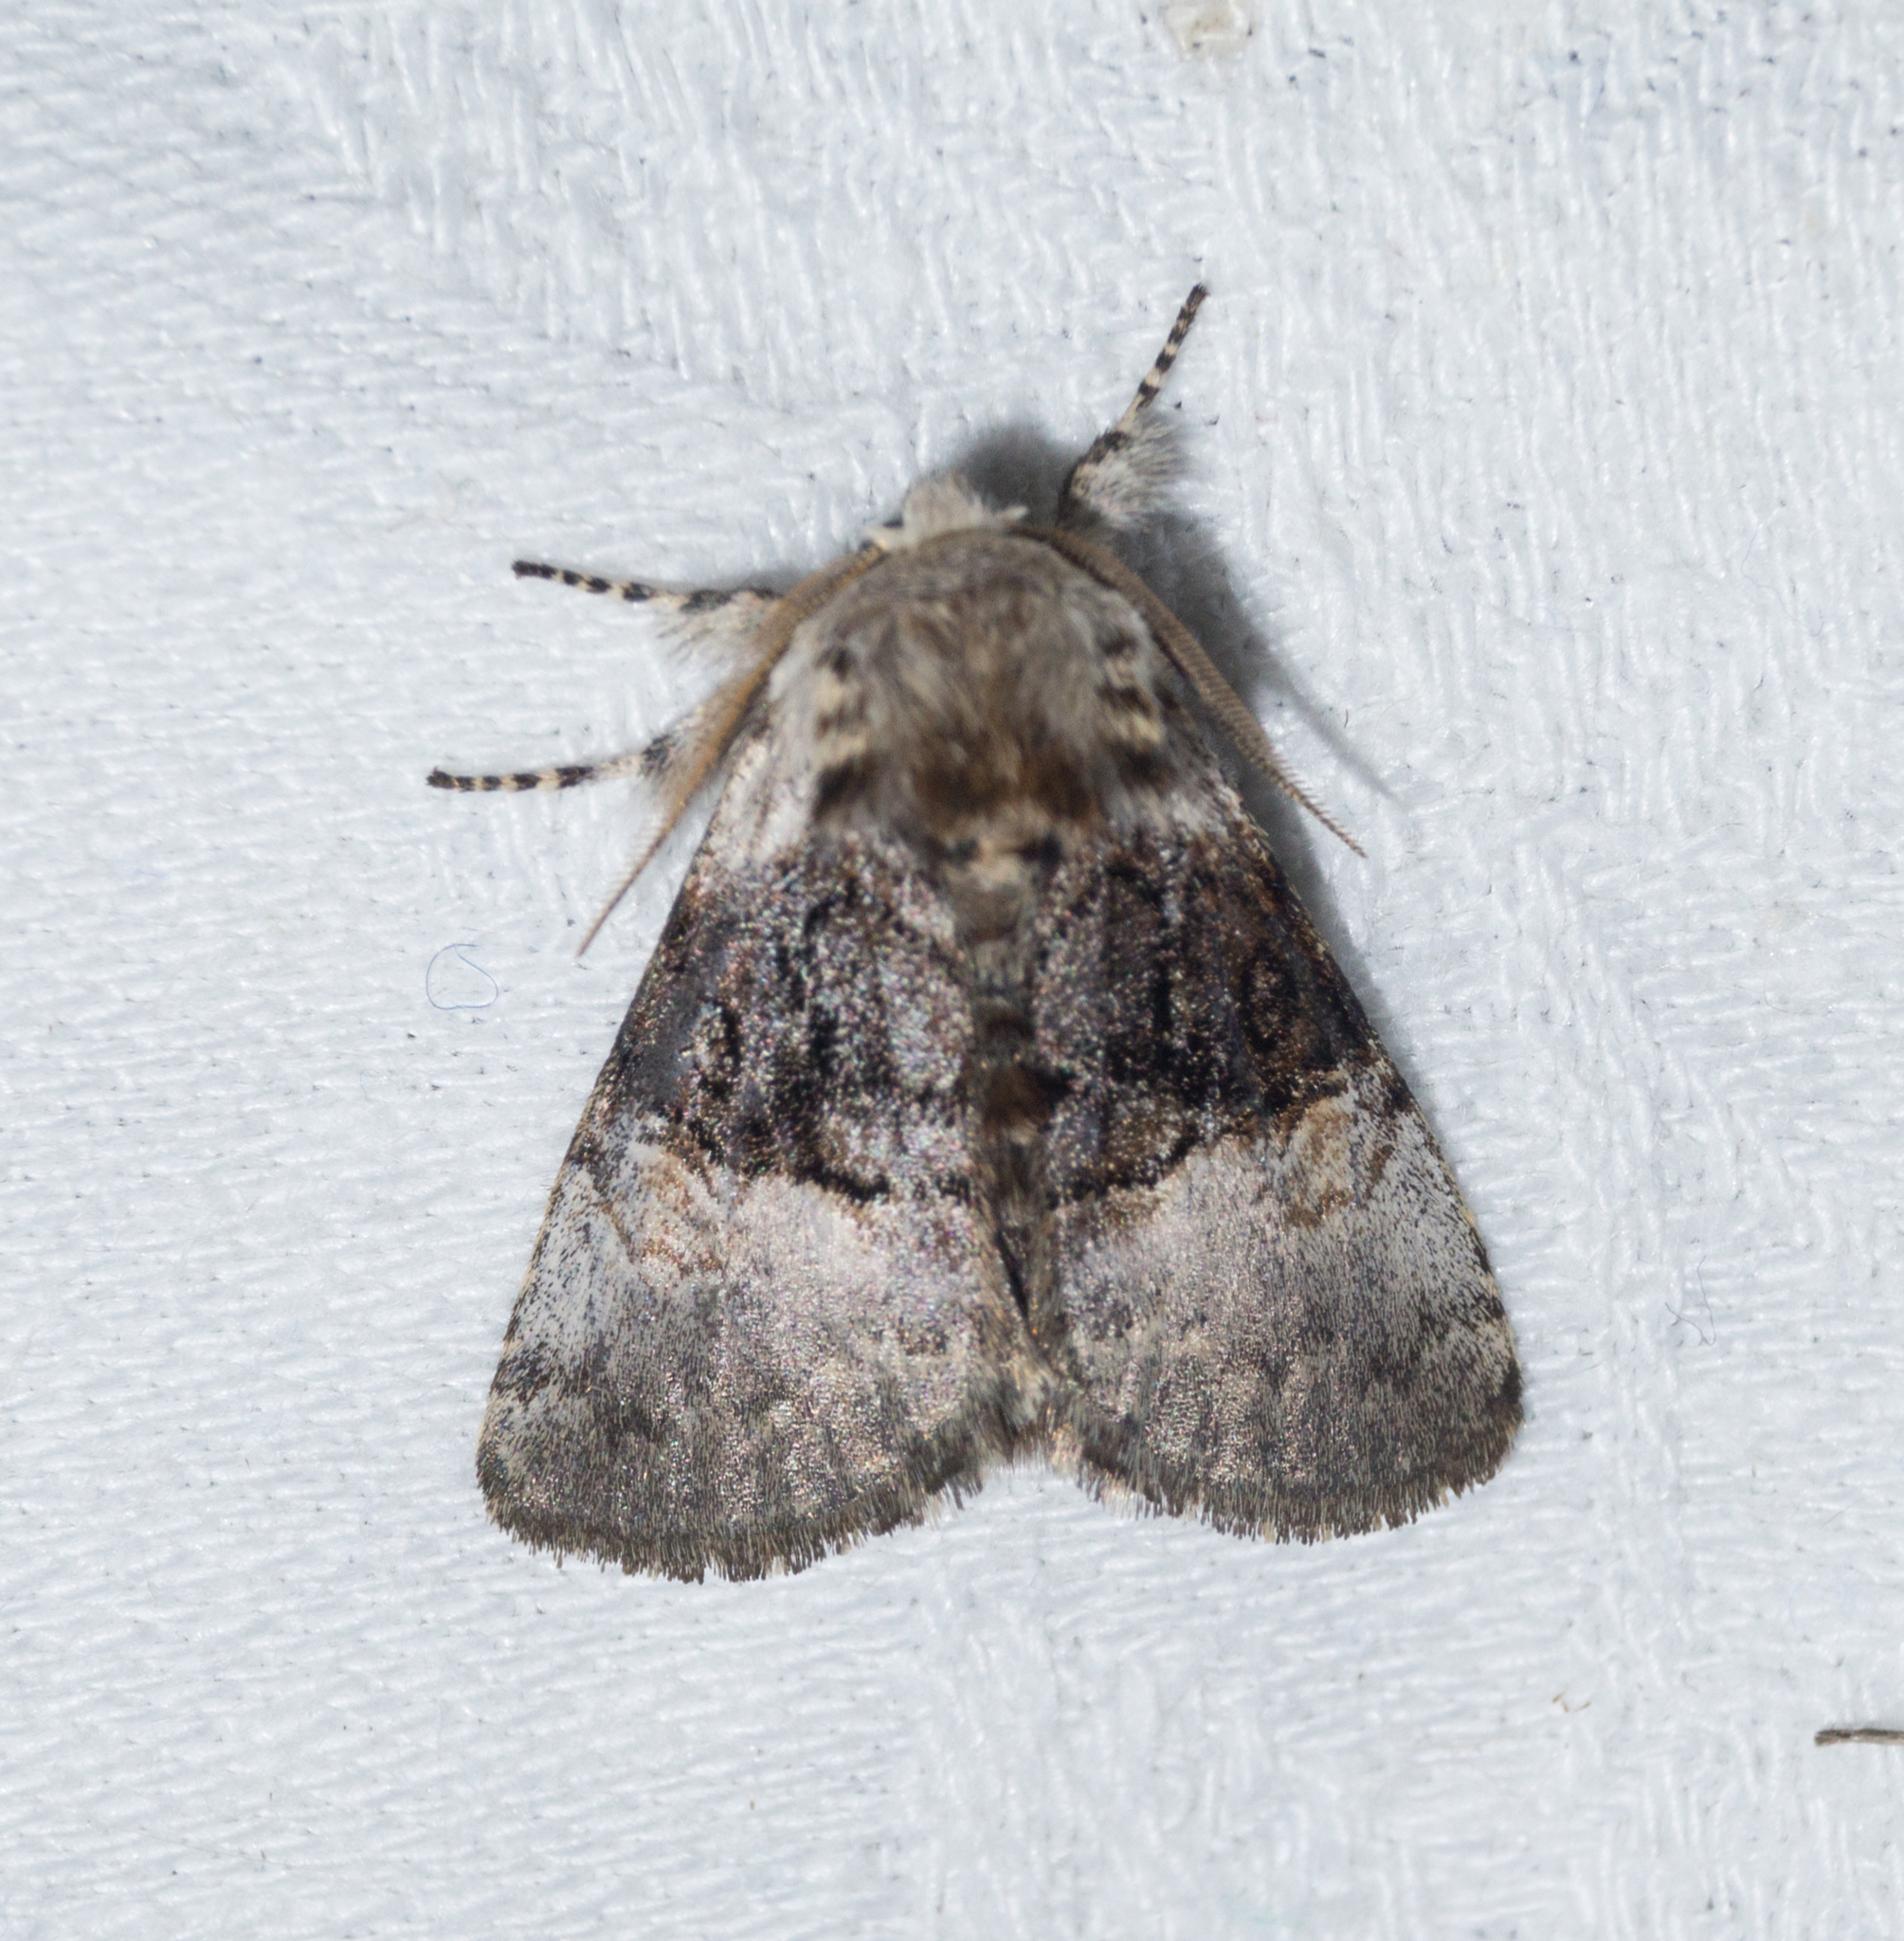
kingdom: Animalia
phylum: Arthropoda
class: Insecta
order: Lepidoptera
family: Noctuidae
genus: Colocasia
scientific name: Colocasia coryli
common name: Nut-tree tussock
